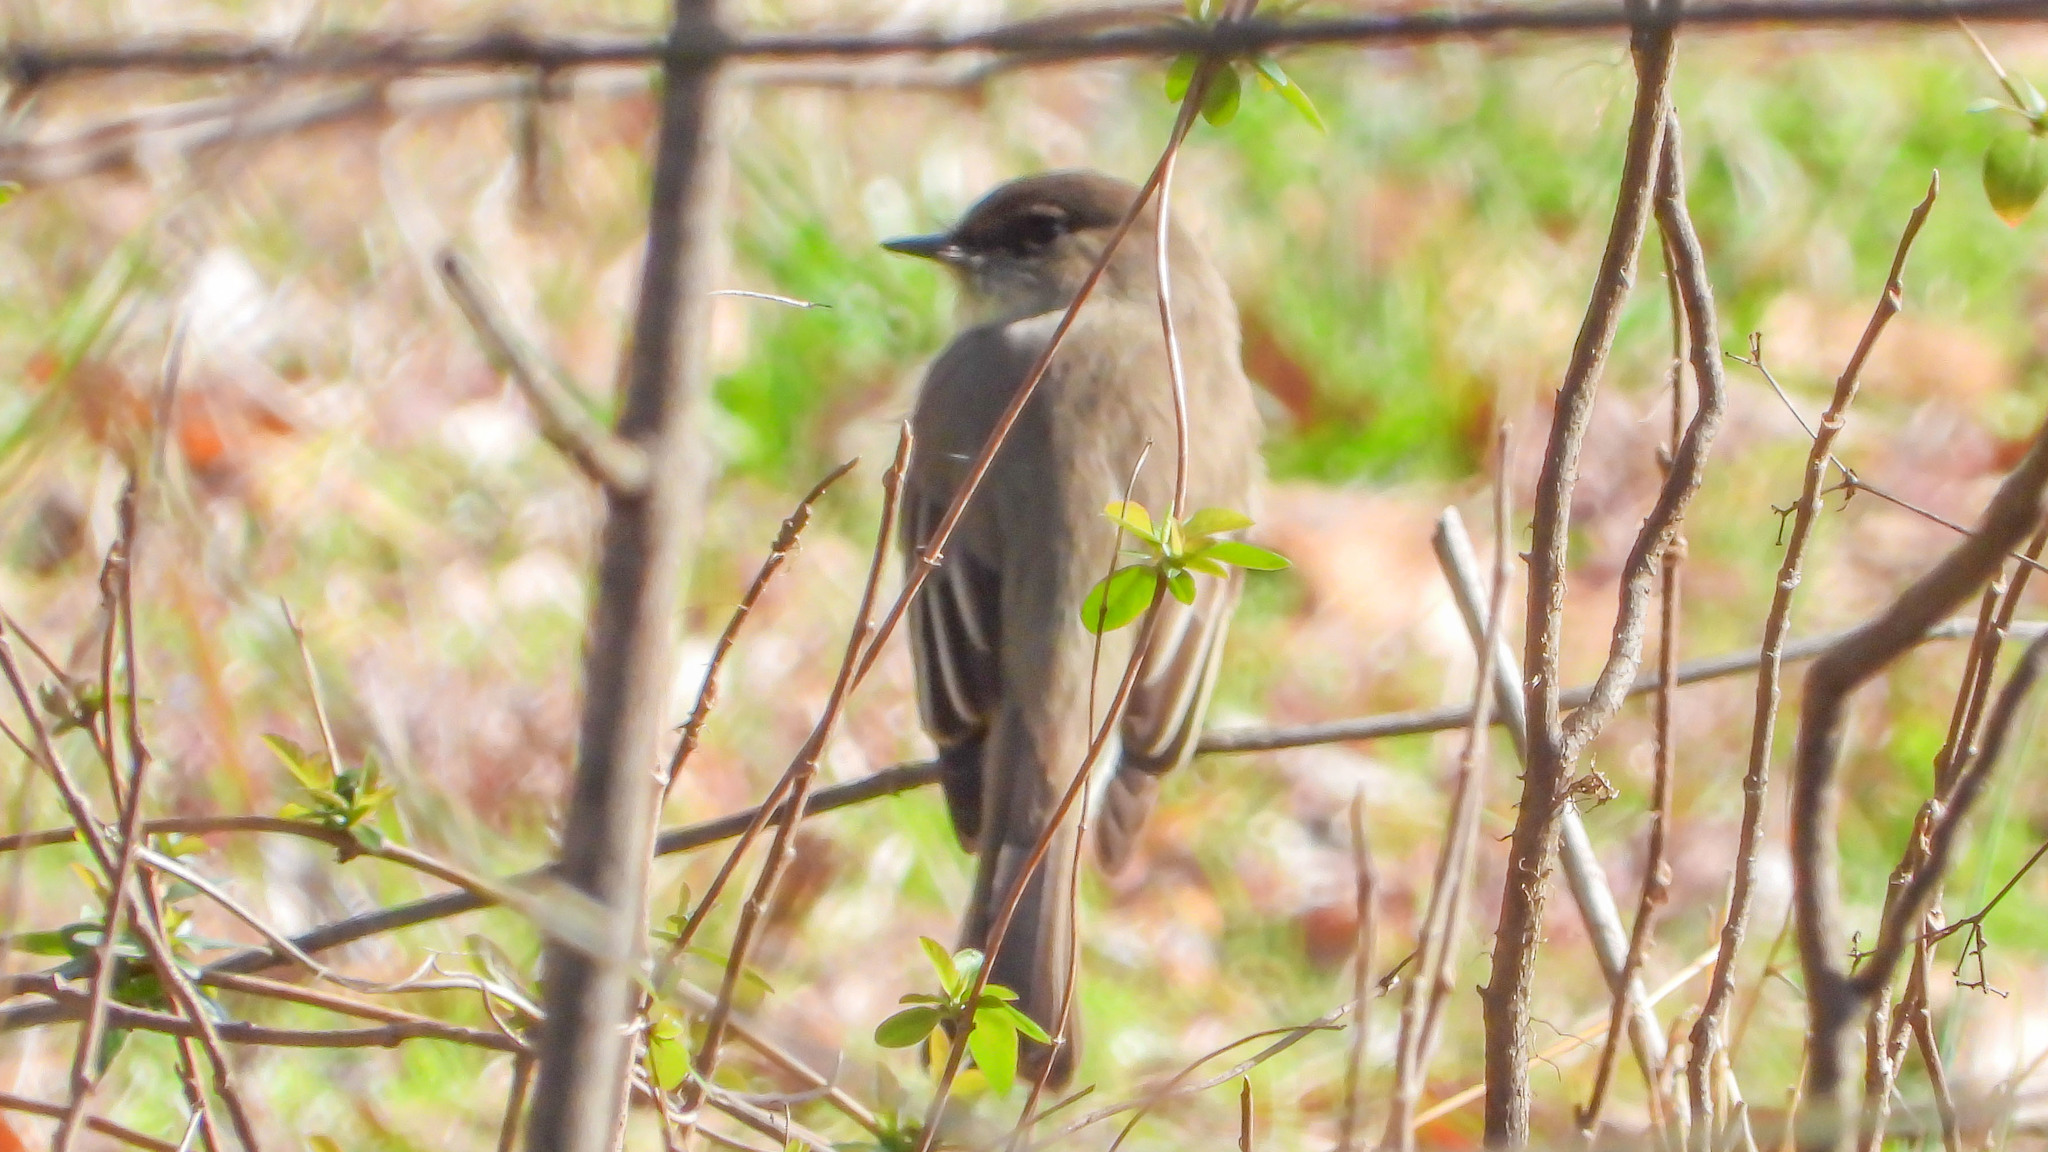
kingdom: Animalia
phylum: Chordata
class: Aves
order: Passeriformes
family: Tyrannidae
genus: Sayornis
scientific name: Sayornis phoebe
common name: Eastern phoebe
